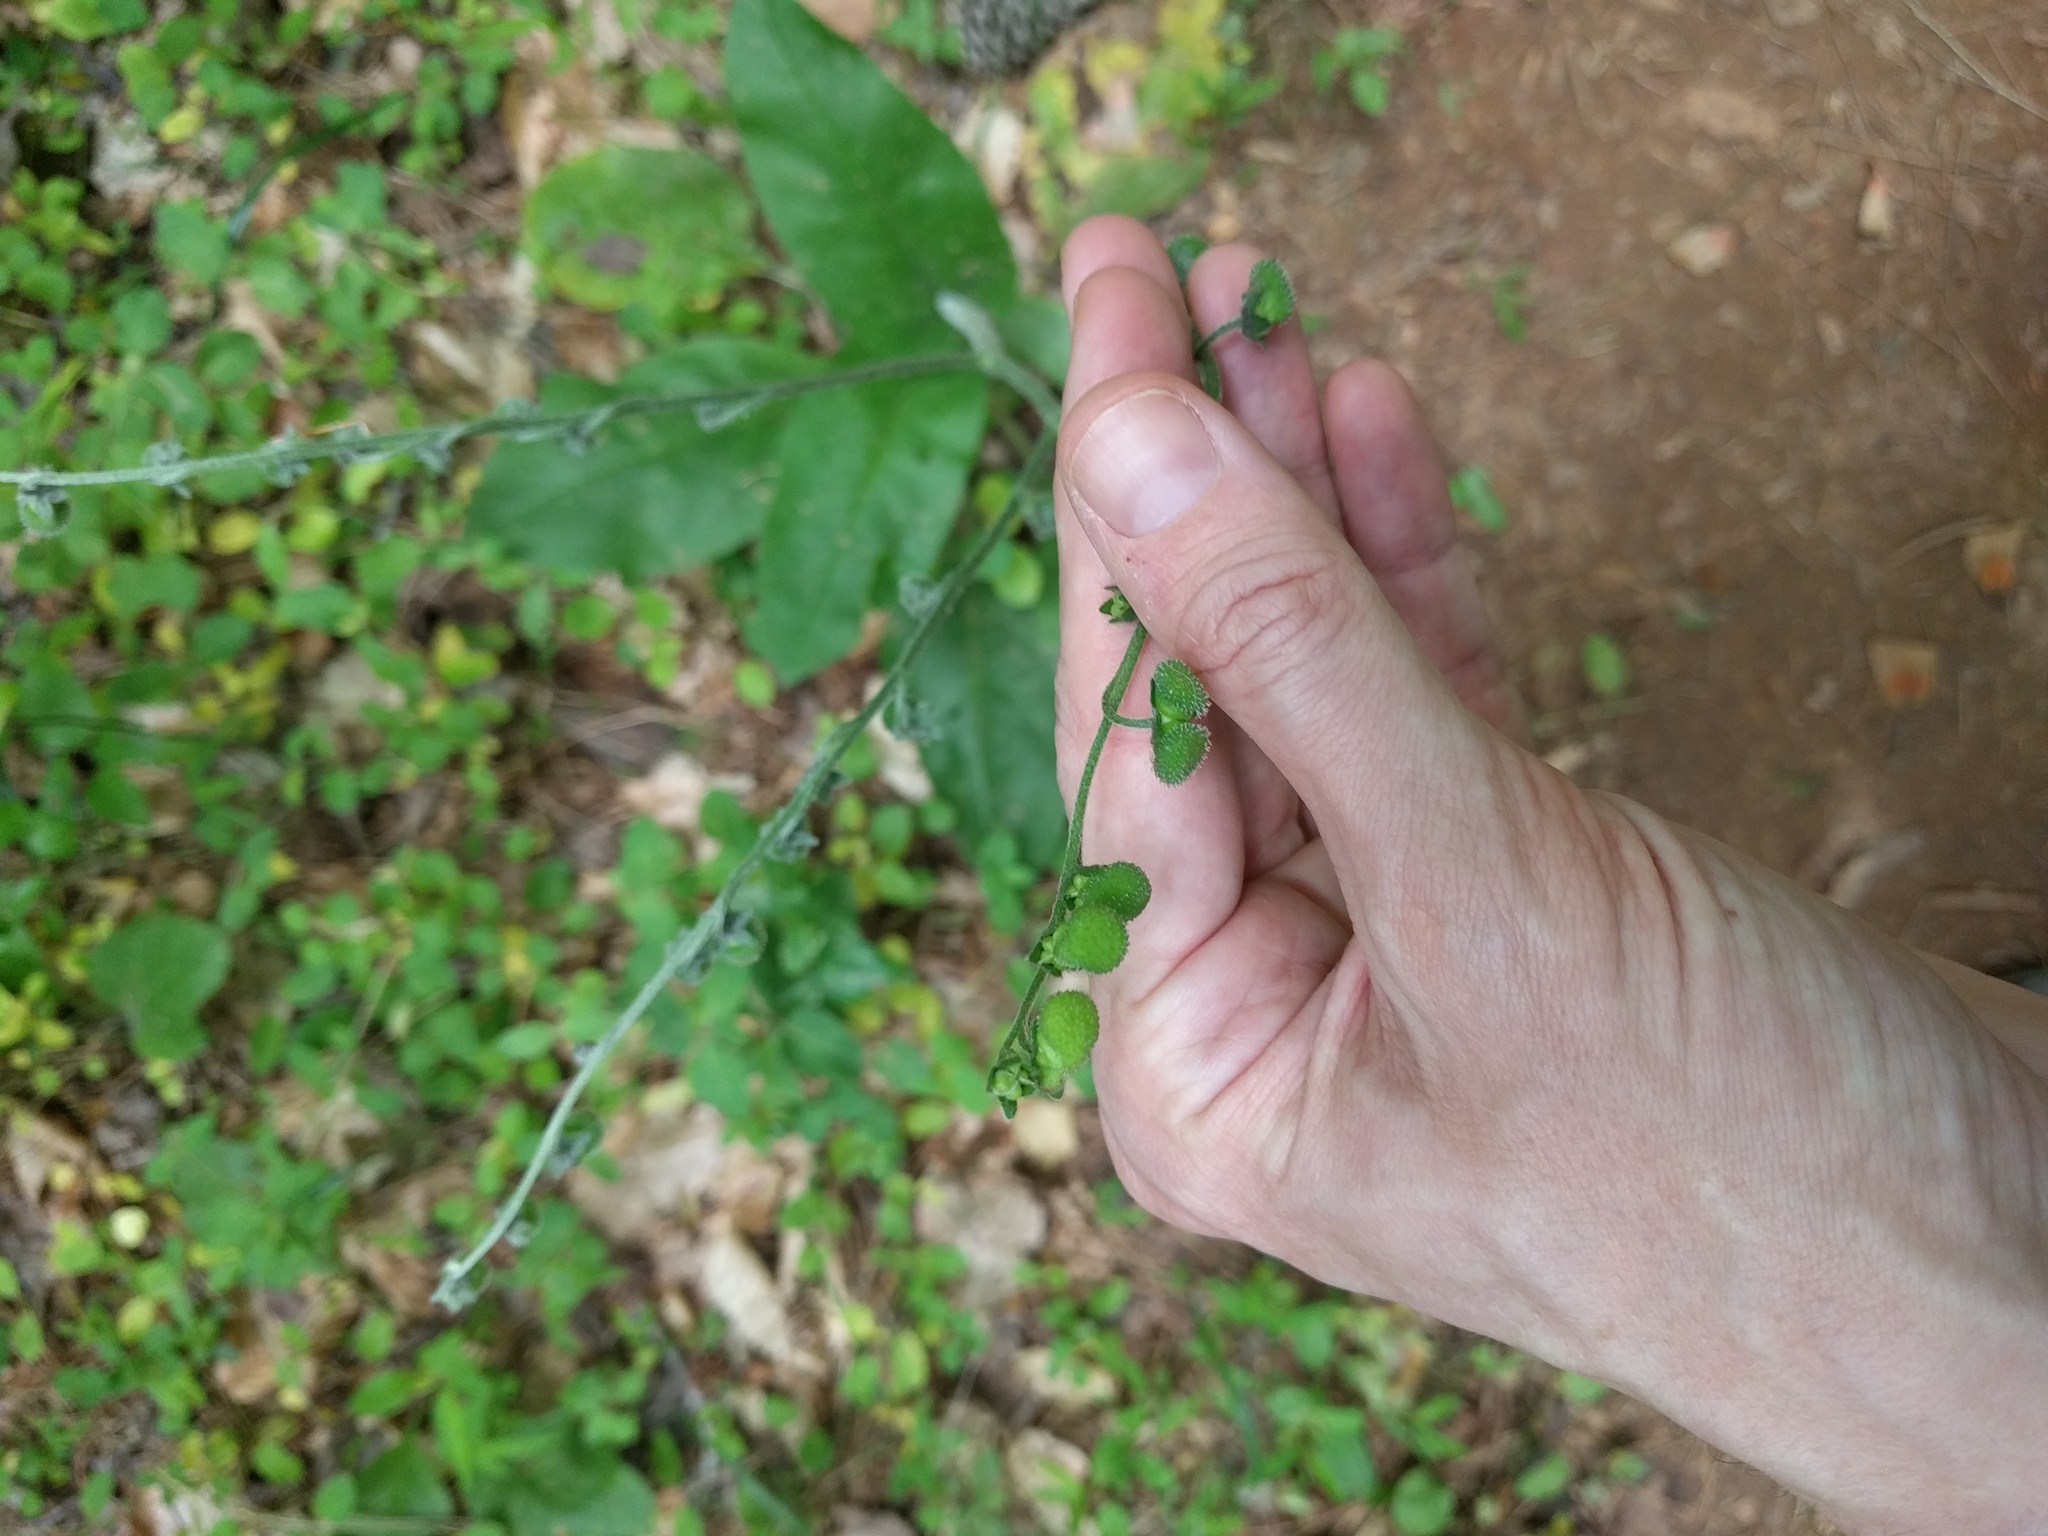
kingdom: Plantae
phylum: Tracheophyta
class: Magnoliopsida
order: Boraginales
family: Boraginaceae
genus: Andersonglossum
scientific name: Andersonglossum virginianum
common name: Wild comfrey
